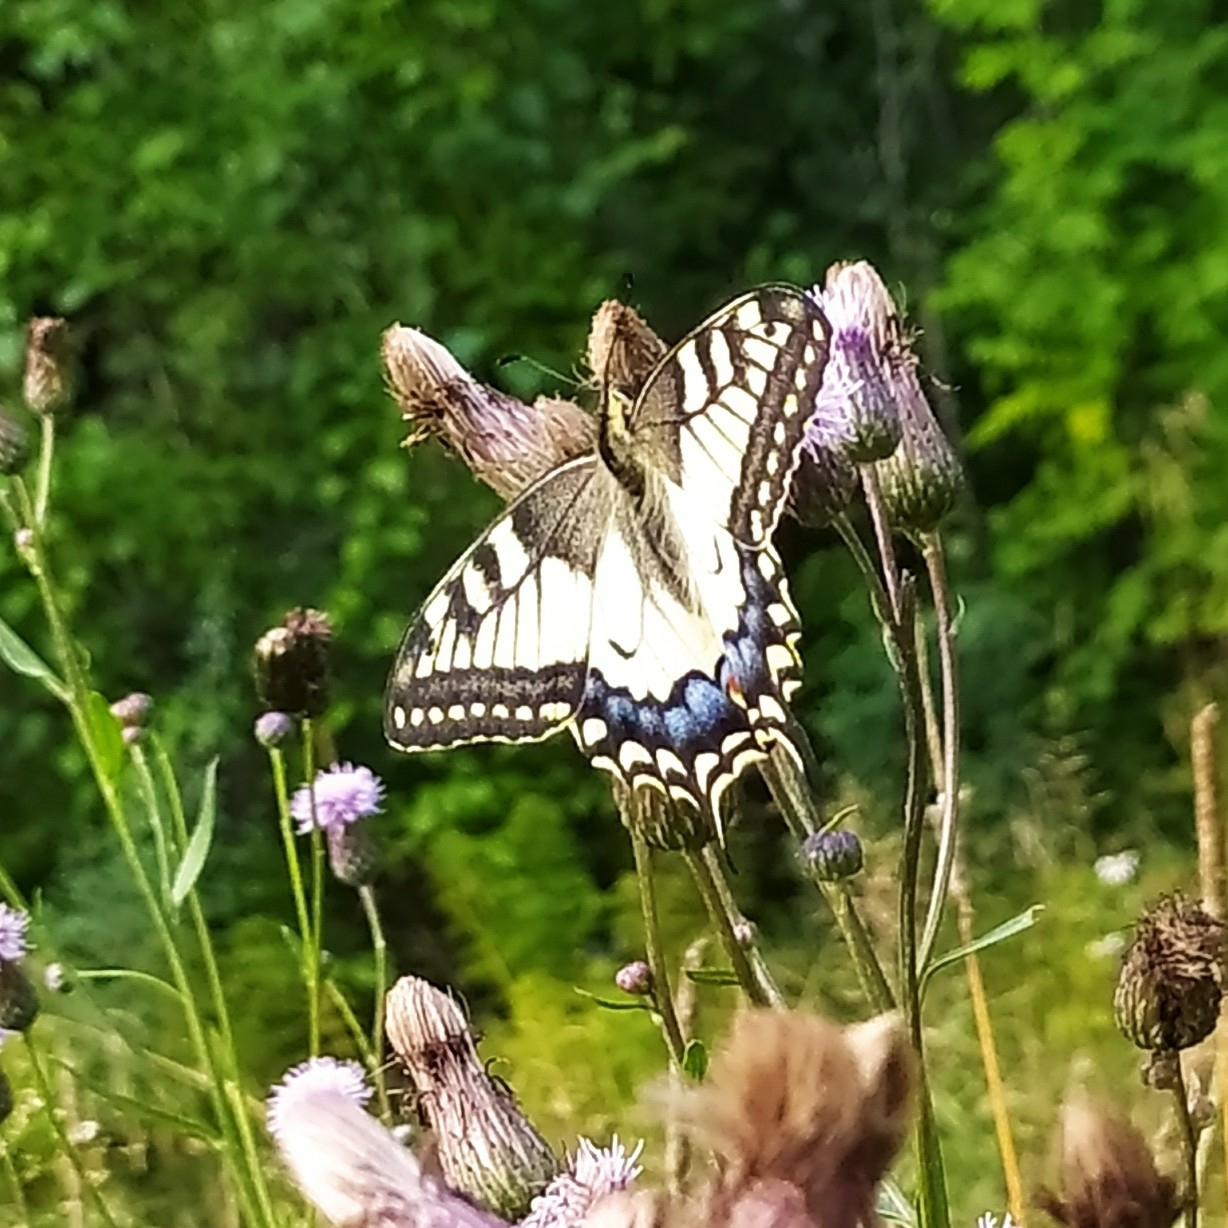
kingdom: Animalia
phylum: Arthropoda
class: Insecta
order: Lepidoptera
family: Papilionidae
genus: Papilio
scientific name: Papilio machaon
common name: Swallowtail
